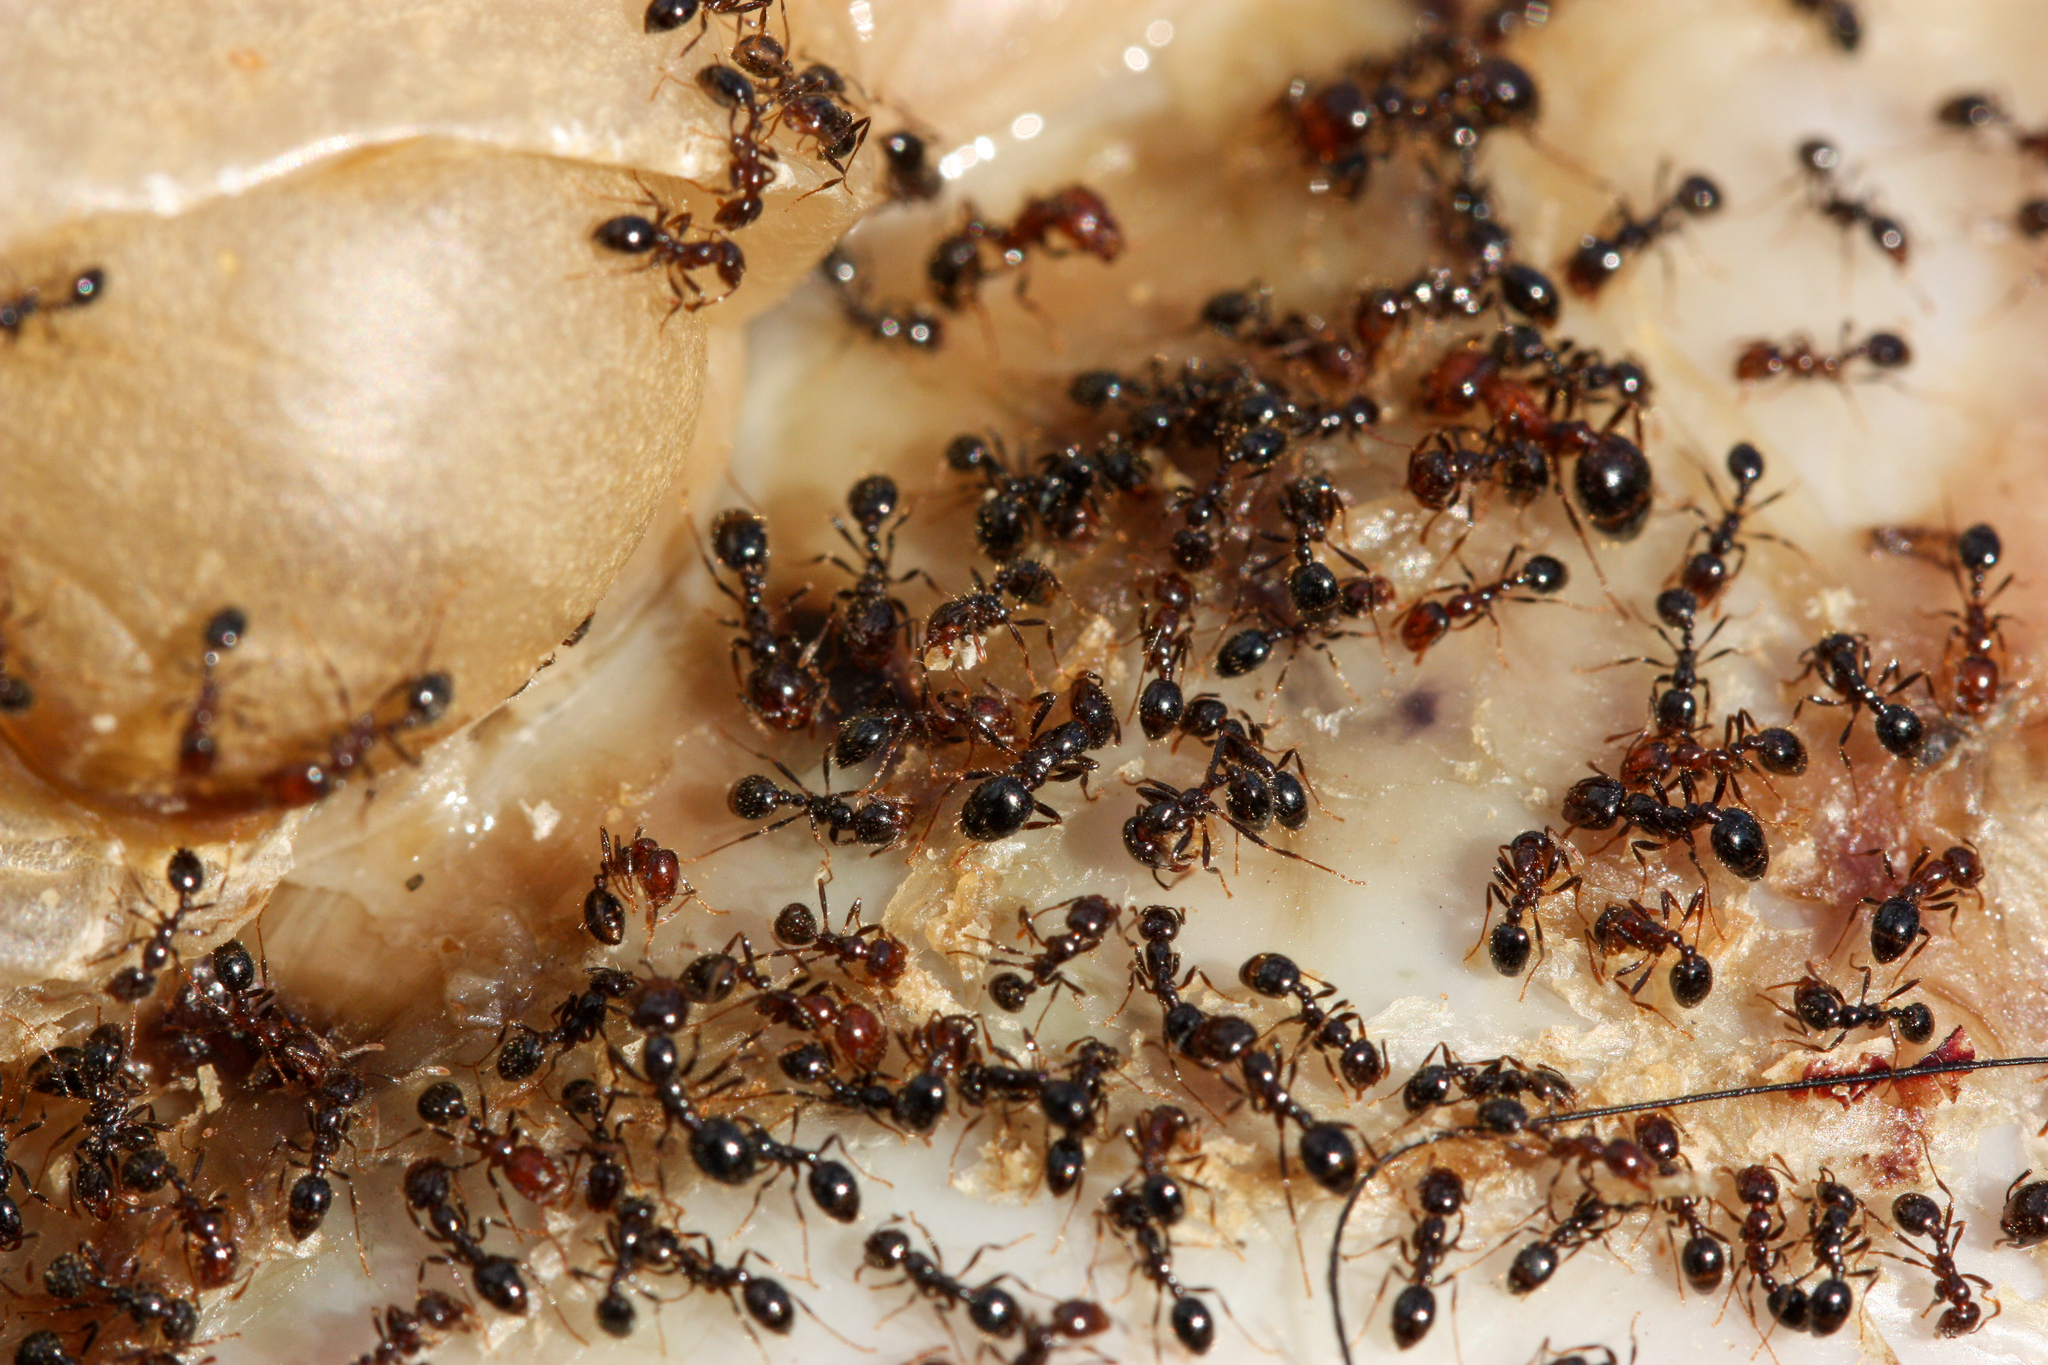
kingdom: Animalia
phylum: Arthropoda
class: Insecta
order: Hymenoptera
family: Formicidae
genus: Solenopsis
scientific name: Solenopsis xyloni
